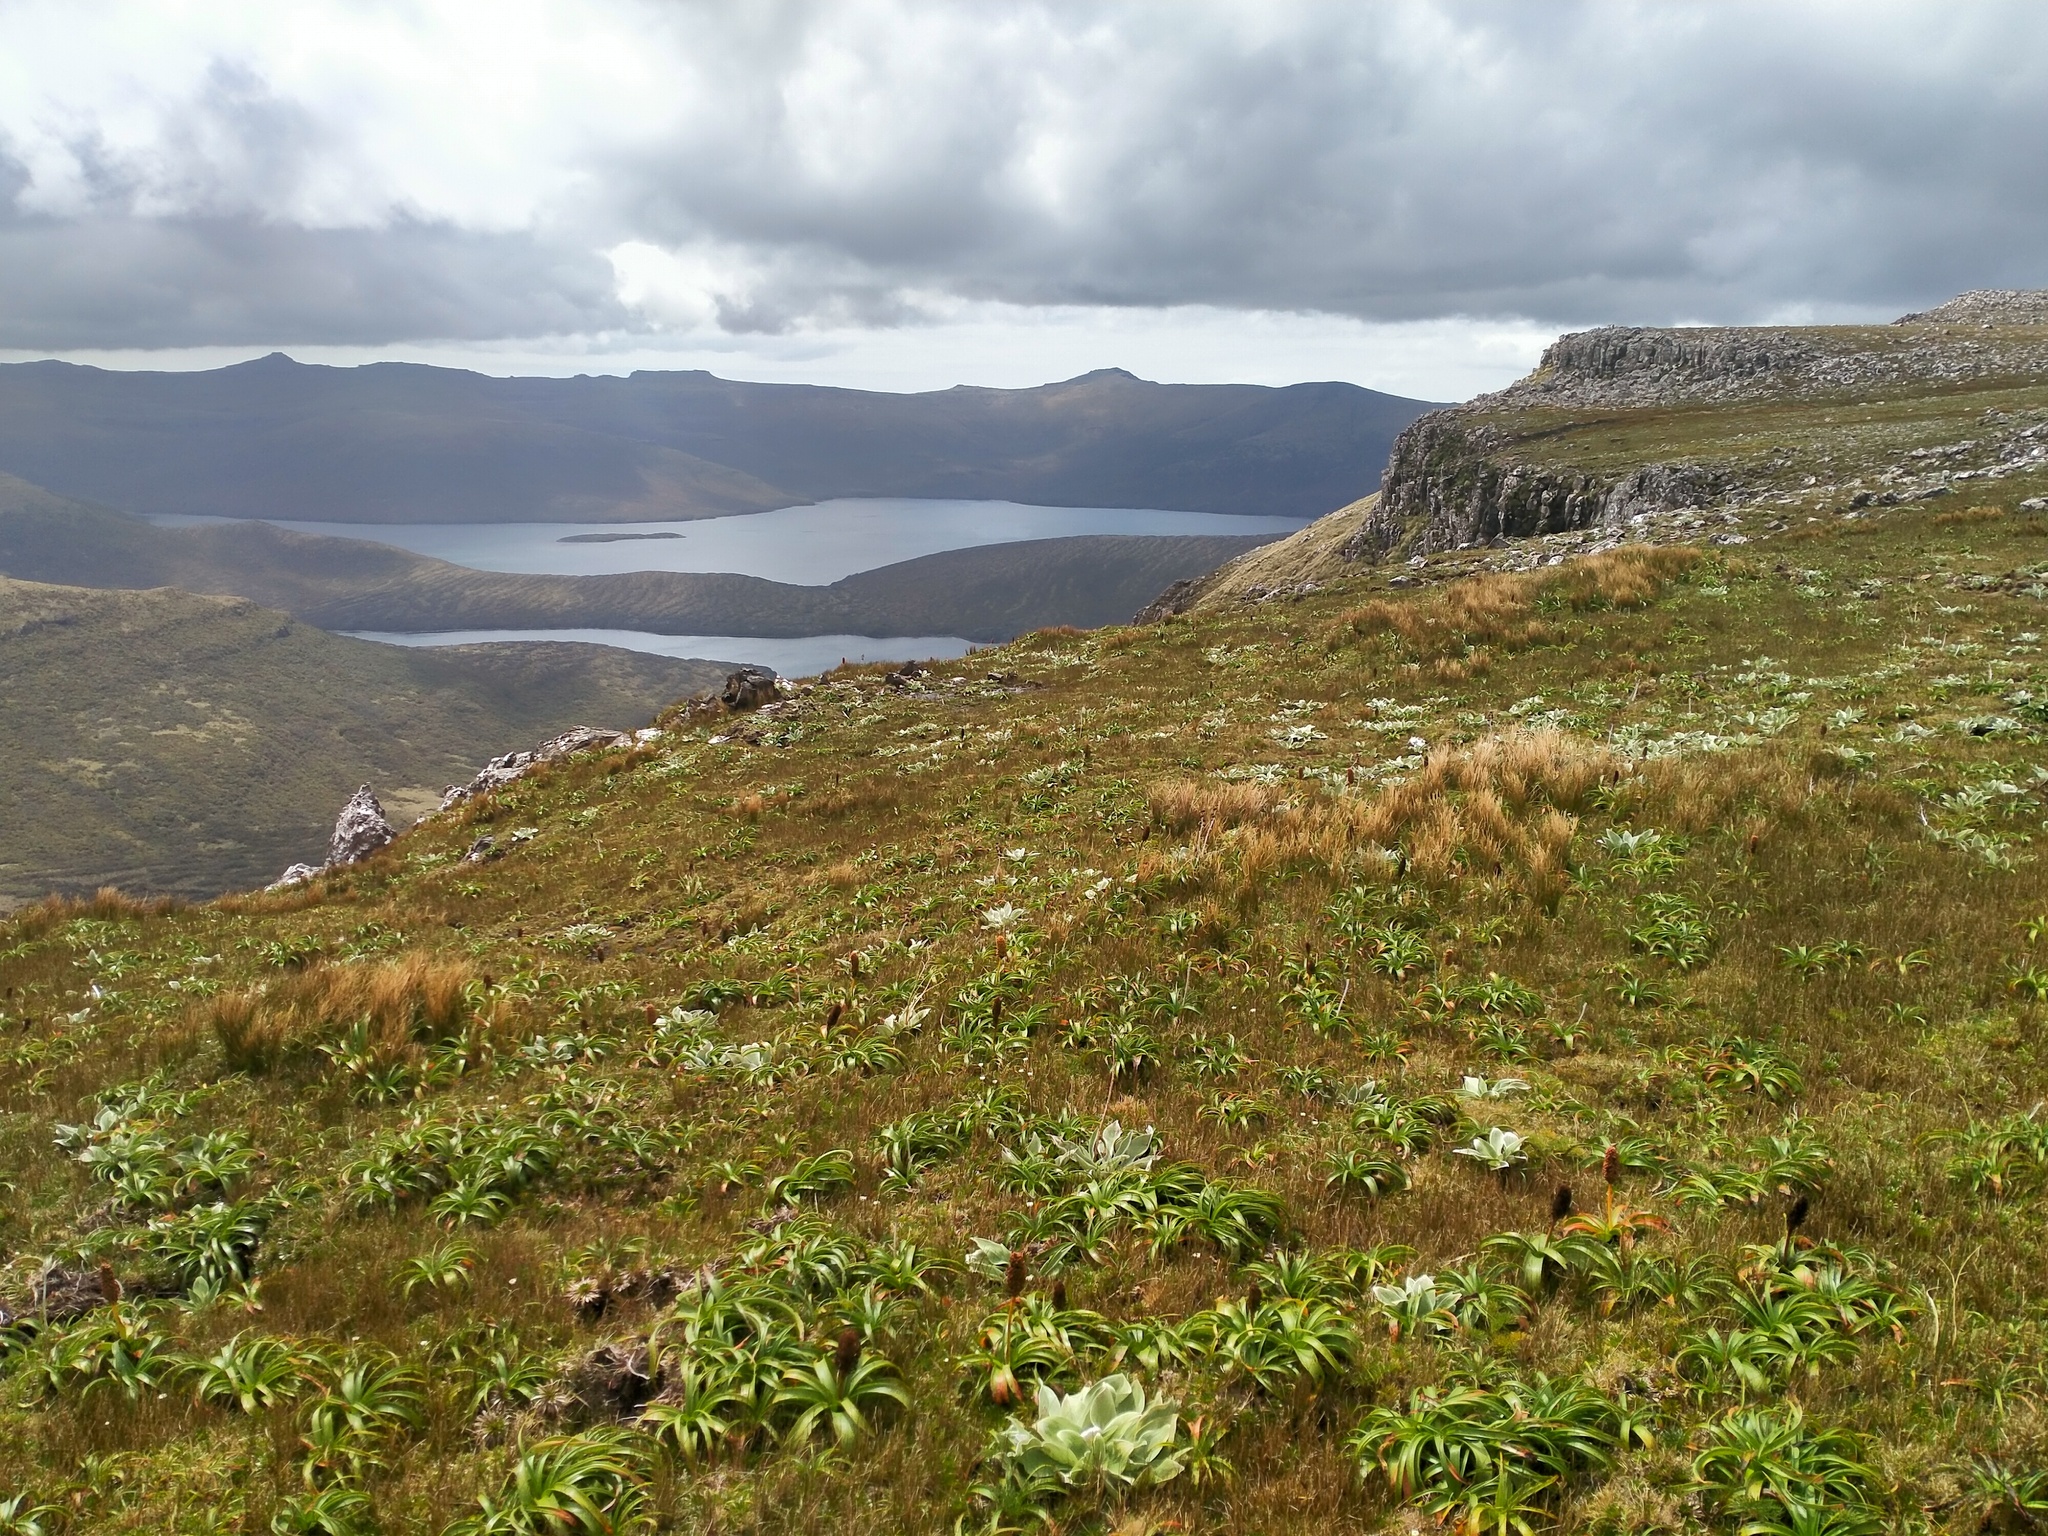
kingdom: Plantae
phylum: Tracheophyta
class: Liliopsida
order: Poales
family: Juncaceae
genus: Marsippospermum
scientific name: Marsippospermum gracile
